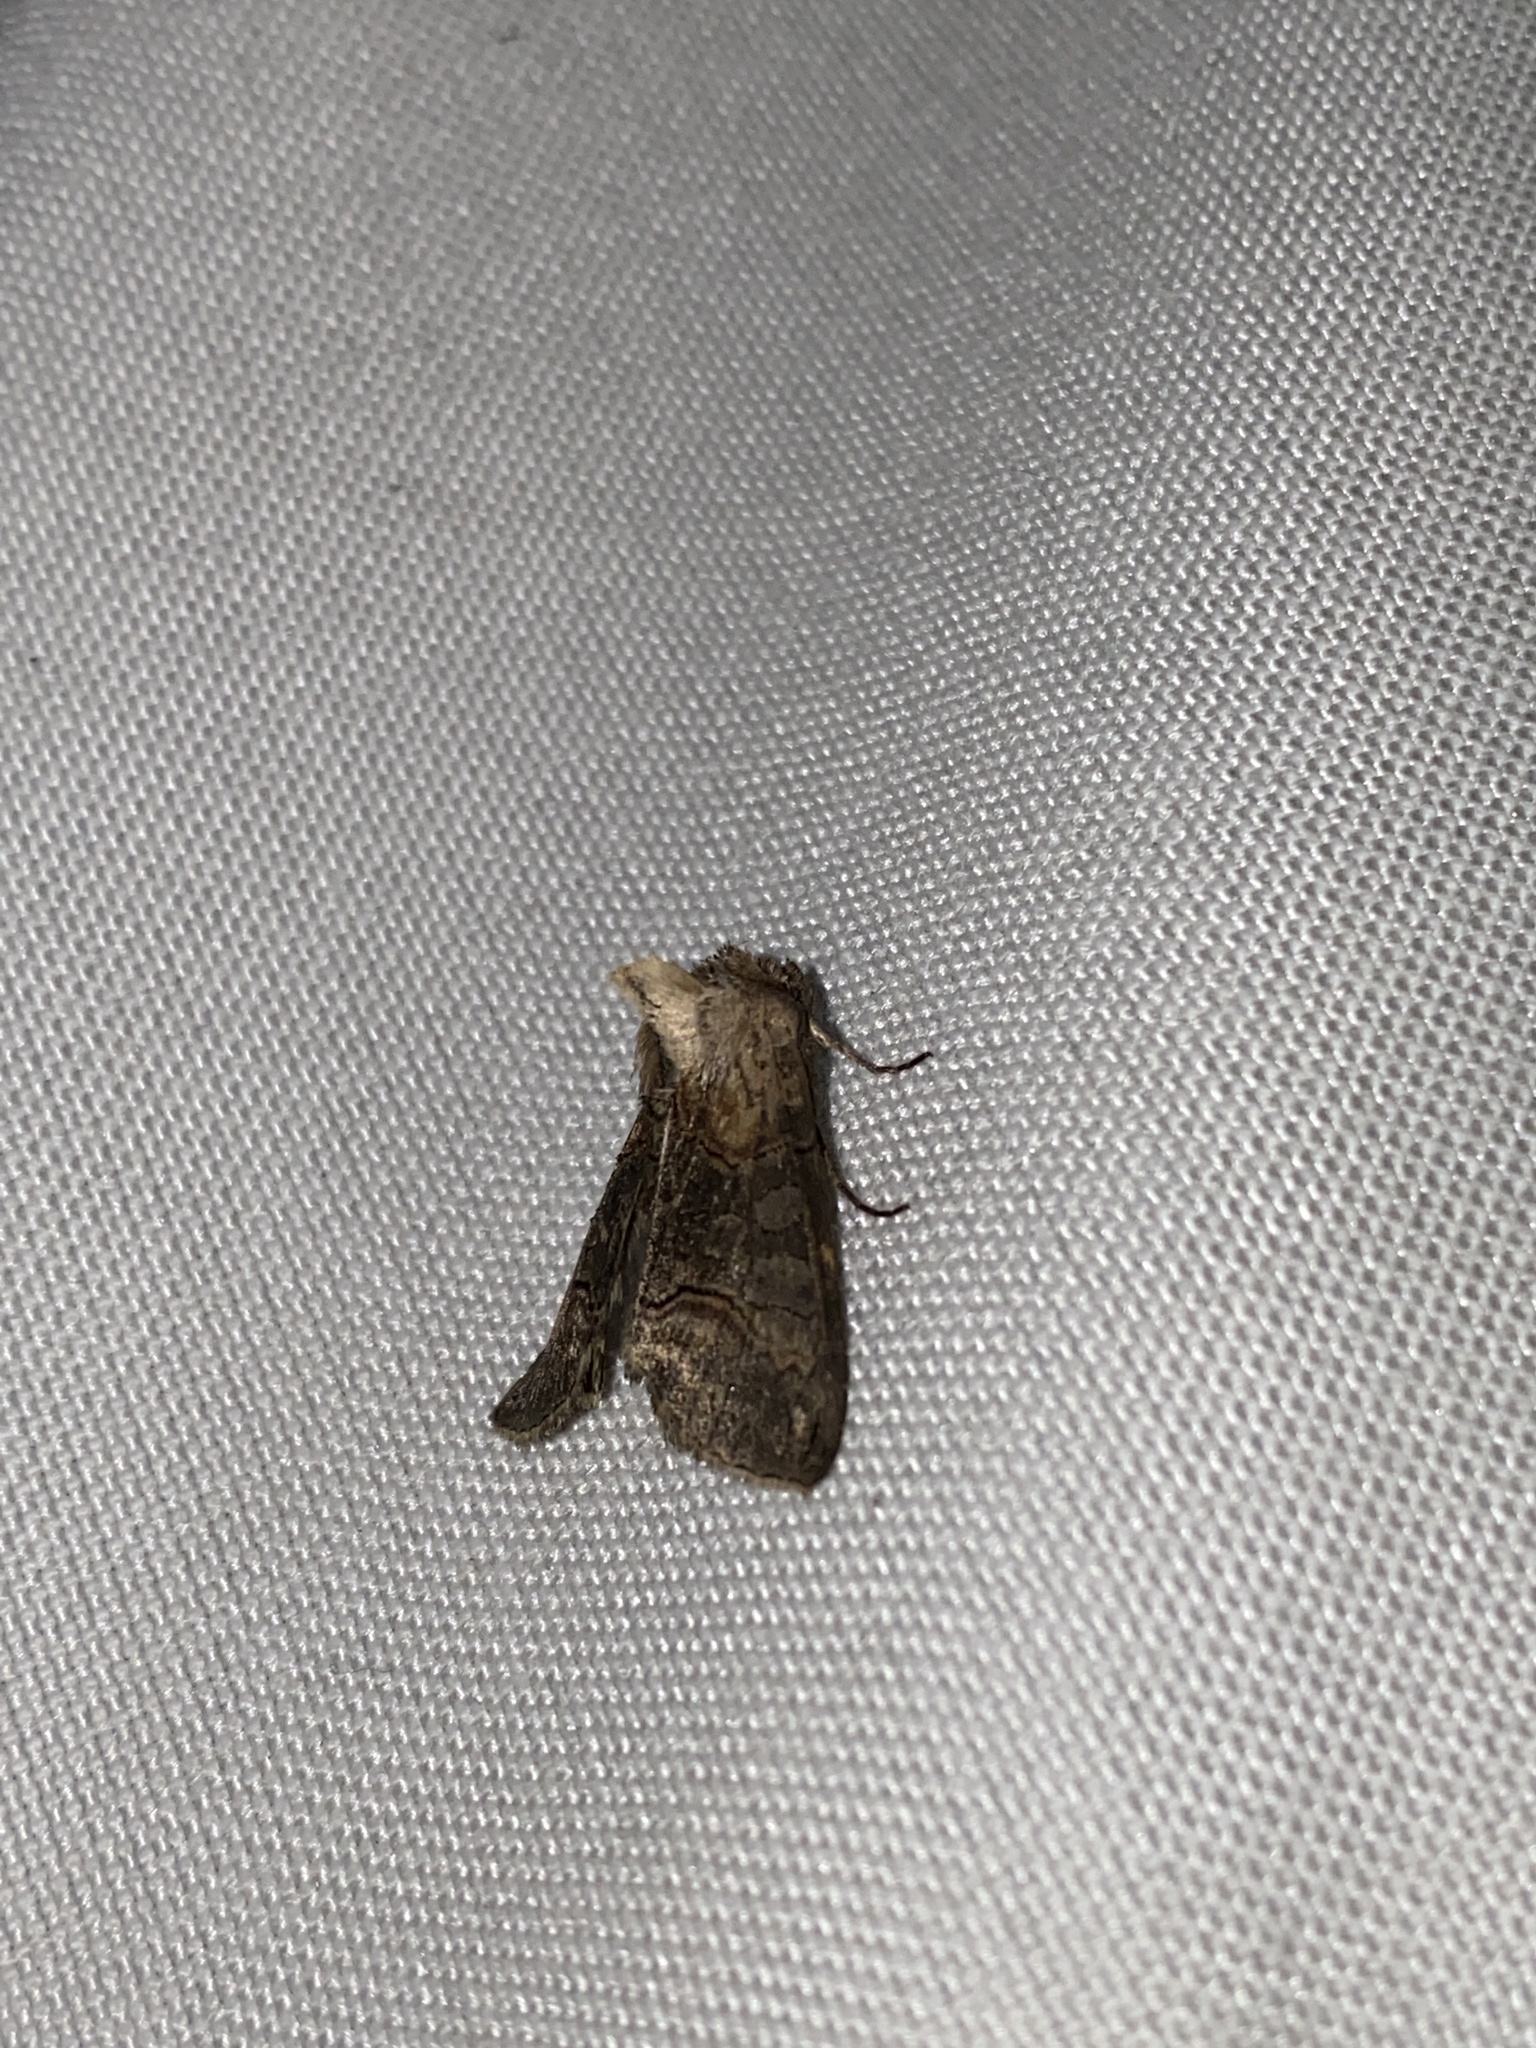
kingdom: Animalia
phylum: Arthropoda
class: Insecta
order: Lepidoptera
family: Noctuidae
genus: Abrostola
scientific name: Abrostola asclepiadis
